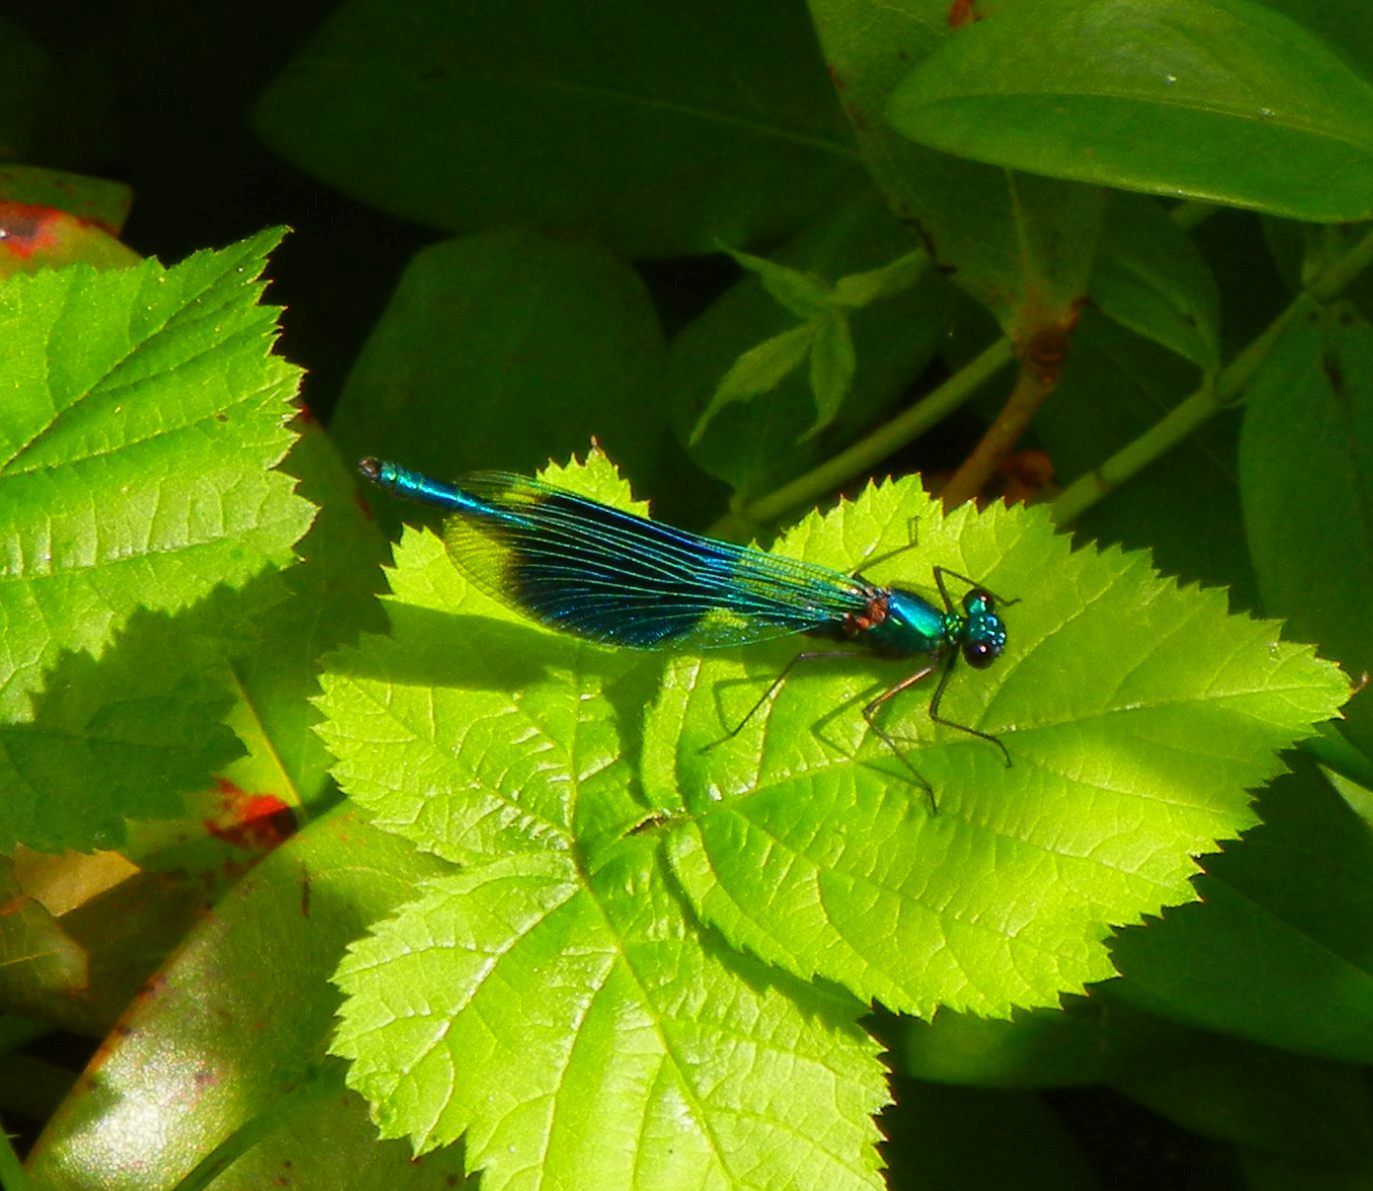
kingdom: Animalia
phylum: Arthropoda
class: Insecta
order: Odonata
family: Calopterygidae
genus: Calopteryx
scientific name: Calopteryx splendens
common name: Banded demoiselle
